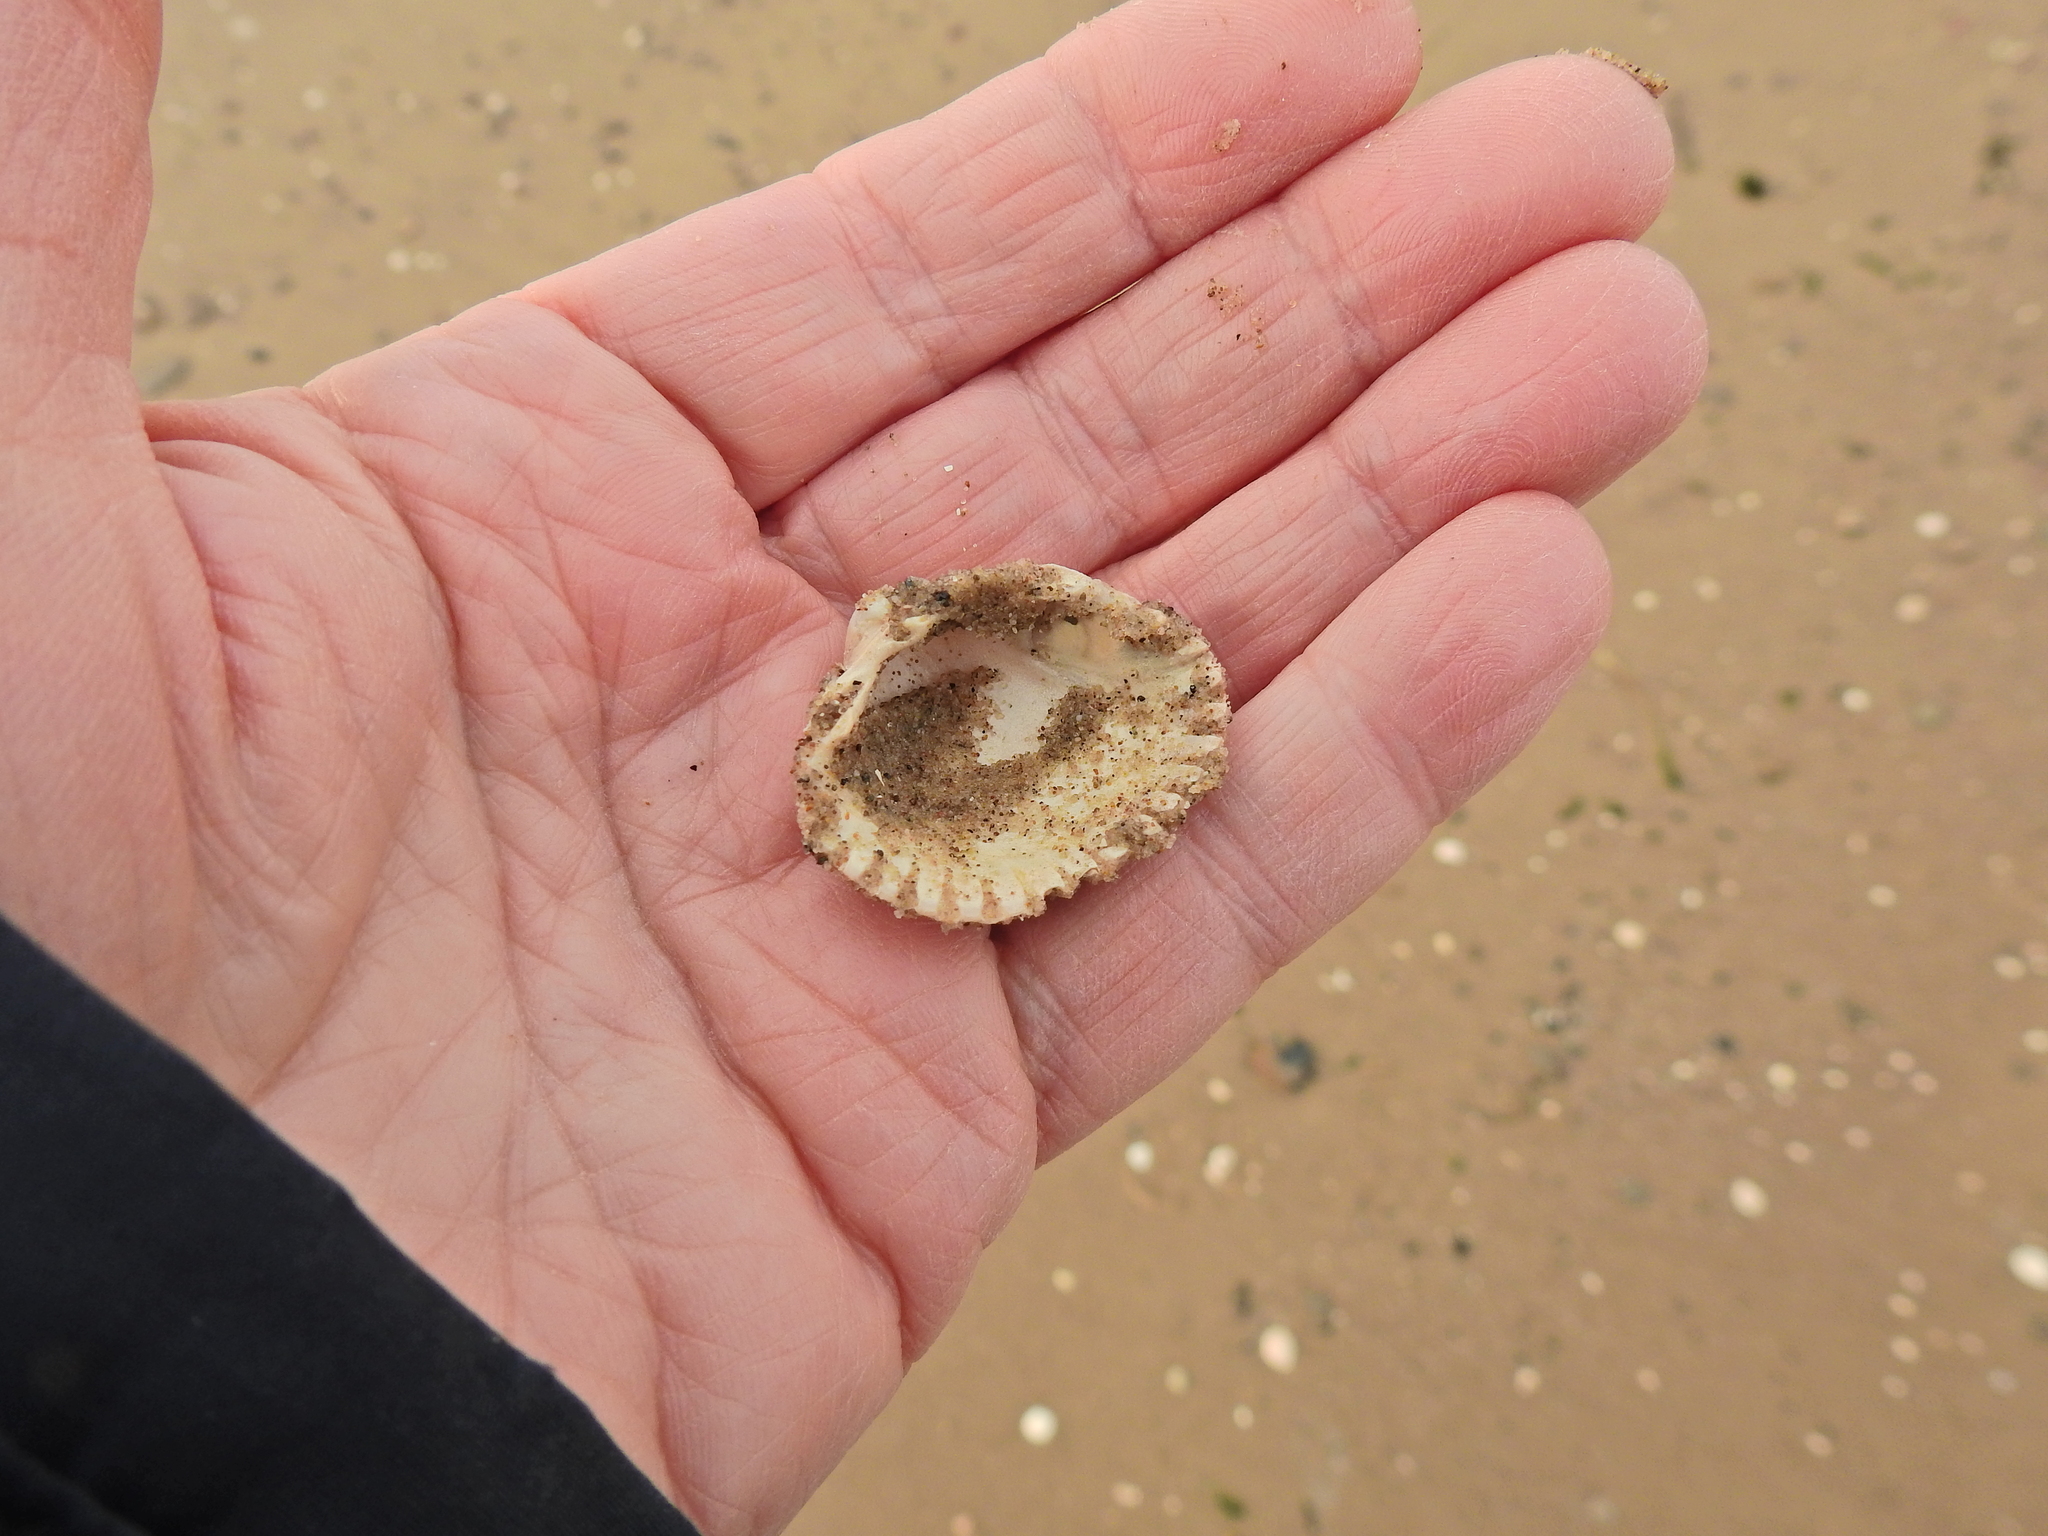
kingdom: Animalia
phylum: Mollusca
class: Bivalvia
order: Cardiida
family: Cardiidae
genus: Cerastoderma
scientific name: Cerastoderma edule
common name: Common cockle
